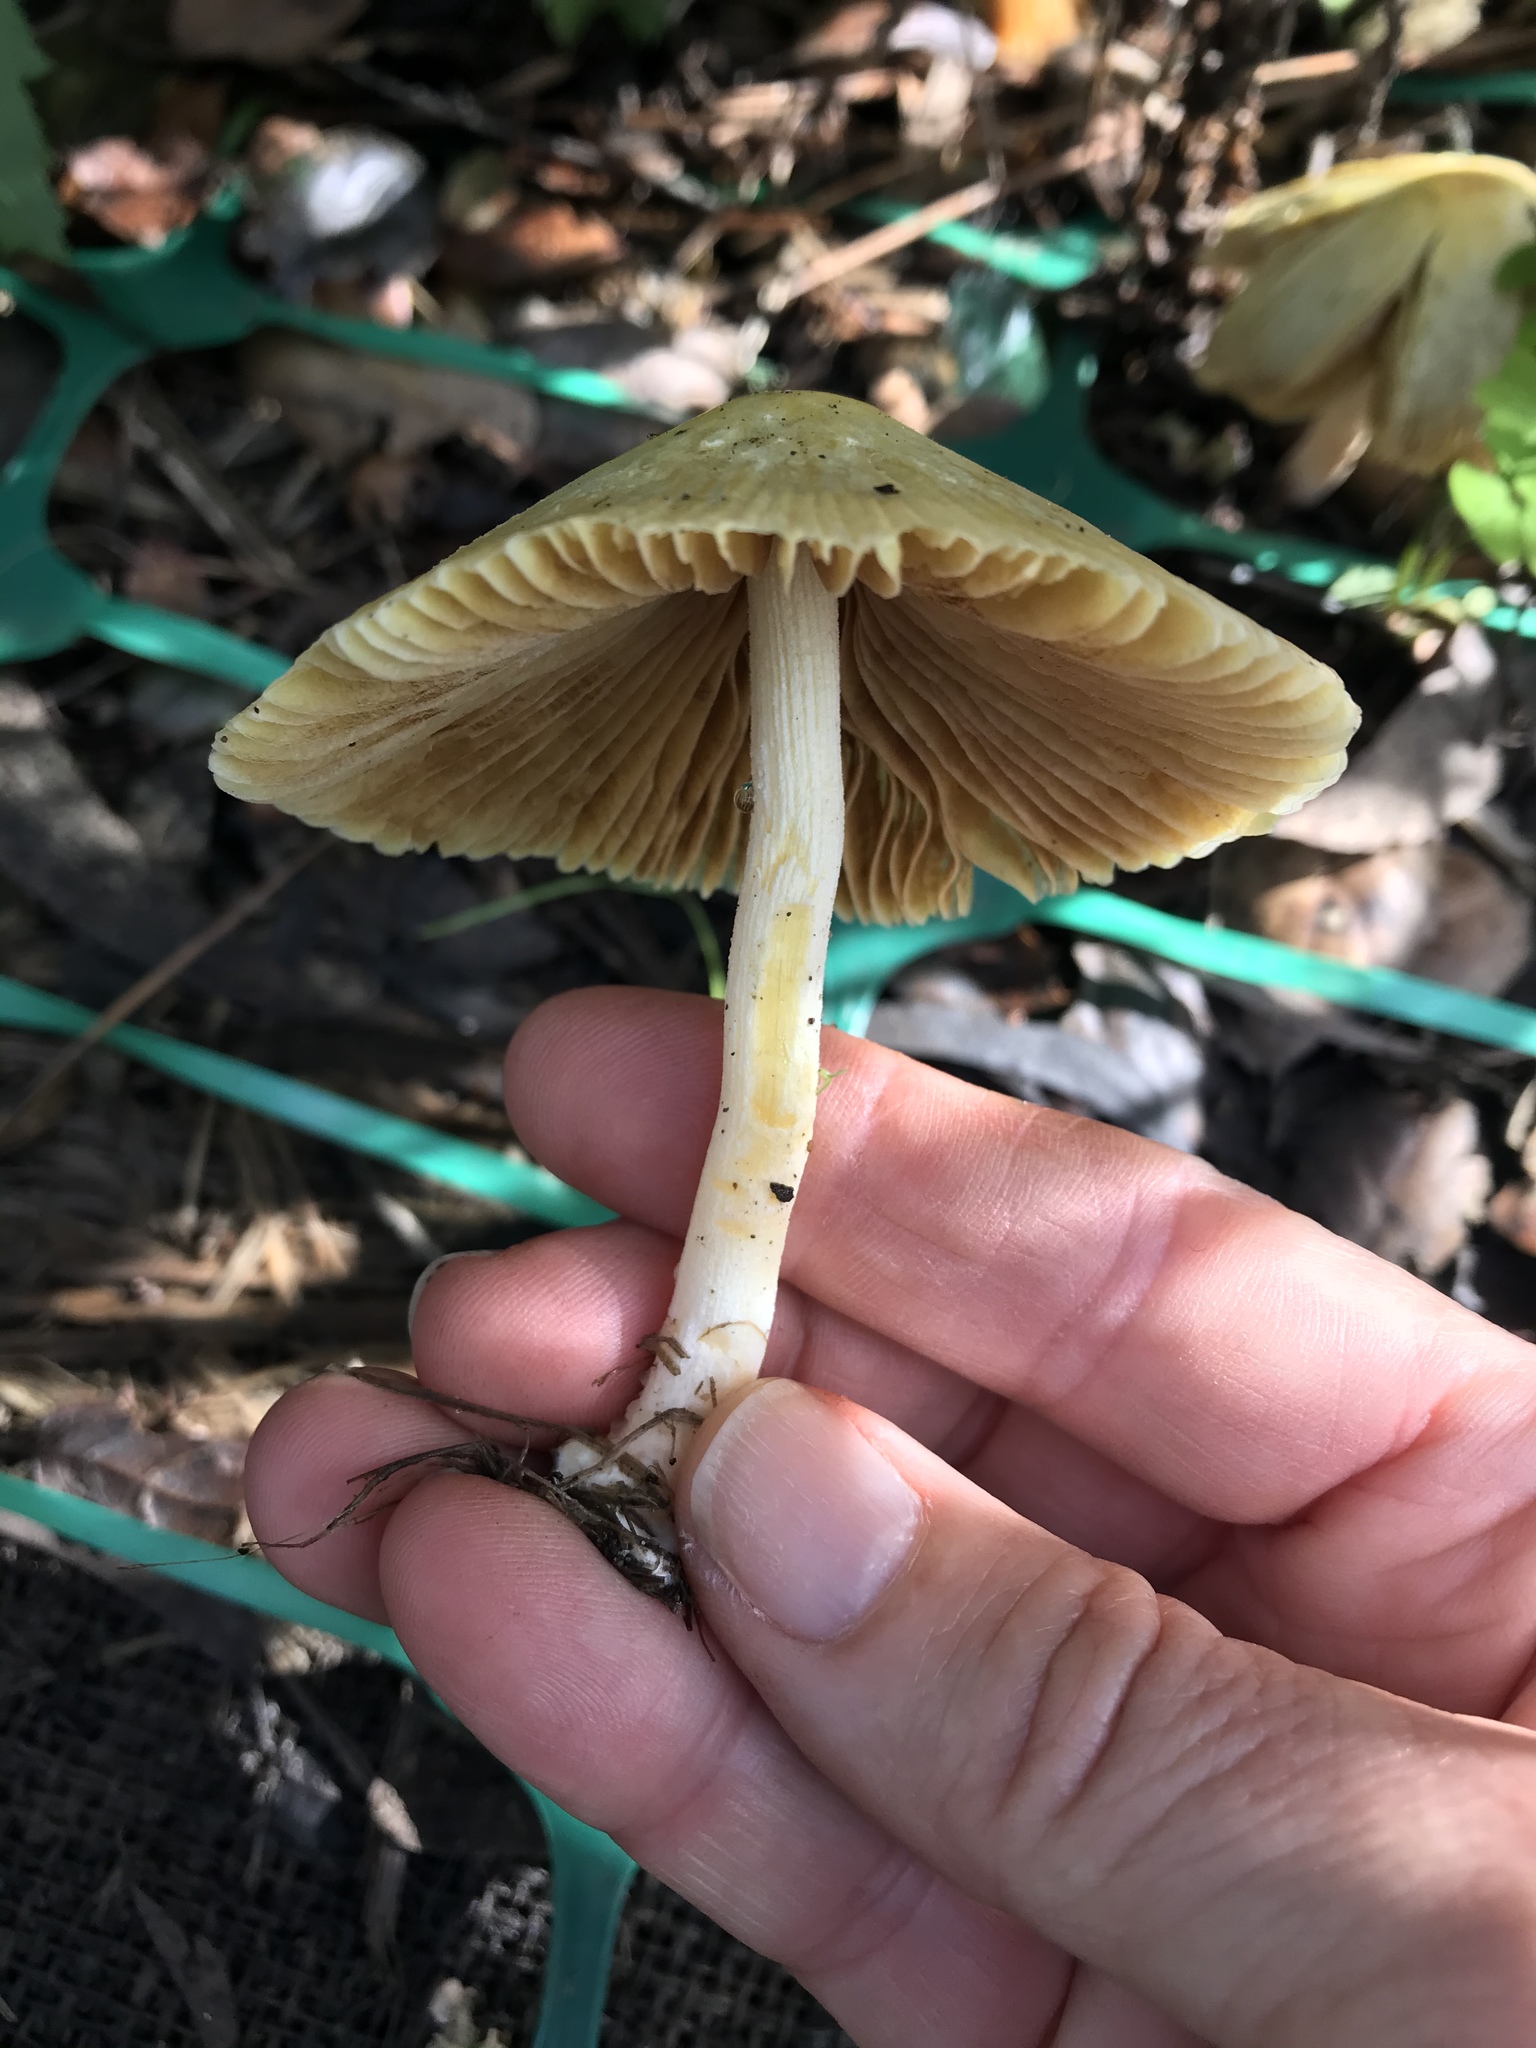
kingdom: Fungi
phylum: Basidiomycota
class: Agaricomycetes
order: Agaricales
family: Bolbitiaceae
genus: Bolbitius
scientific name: Bolbitius titubans
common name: Yellow fieldcap
